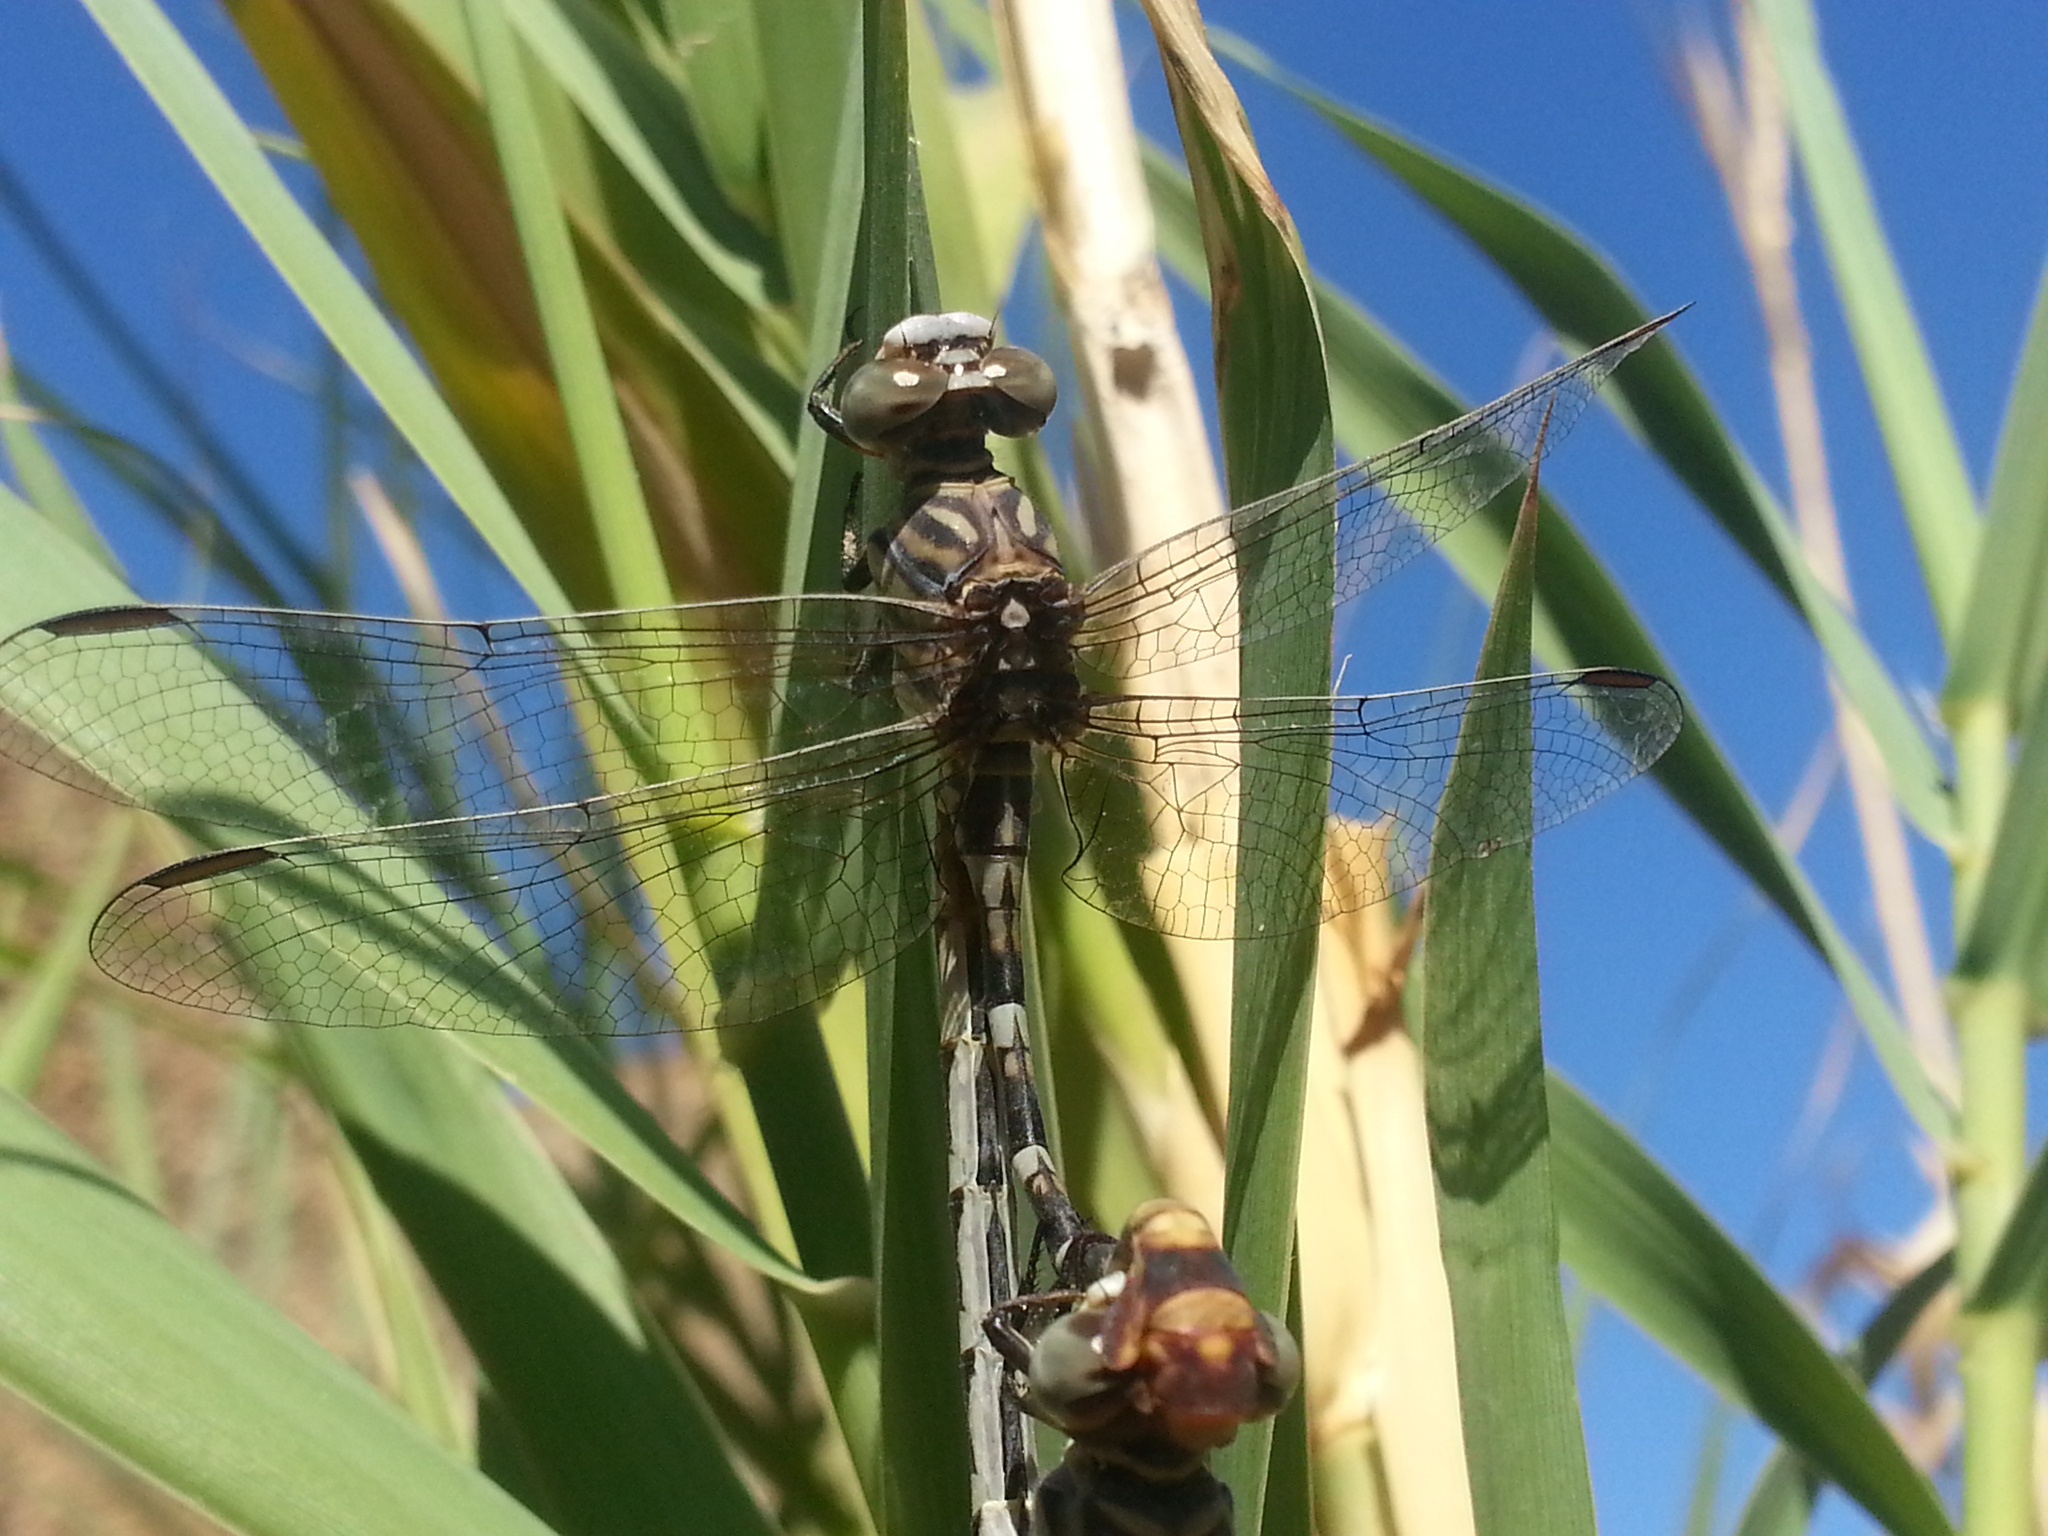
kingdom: Animalia
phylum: Arthropoda
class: Insecta
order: Odonata
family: Gomphidae
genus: Paragomphus
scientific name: Paragomphus sinaiticus
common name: Sinai hooktail
